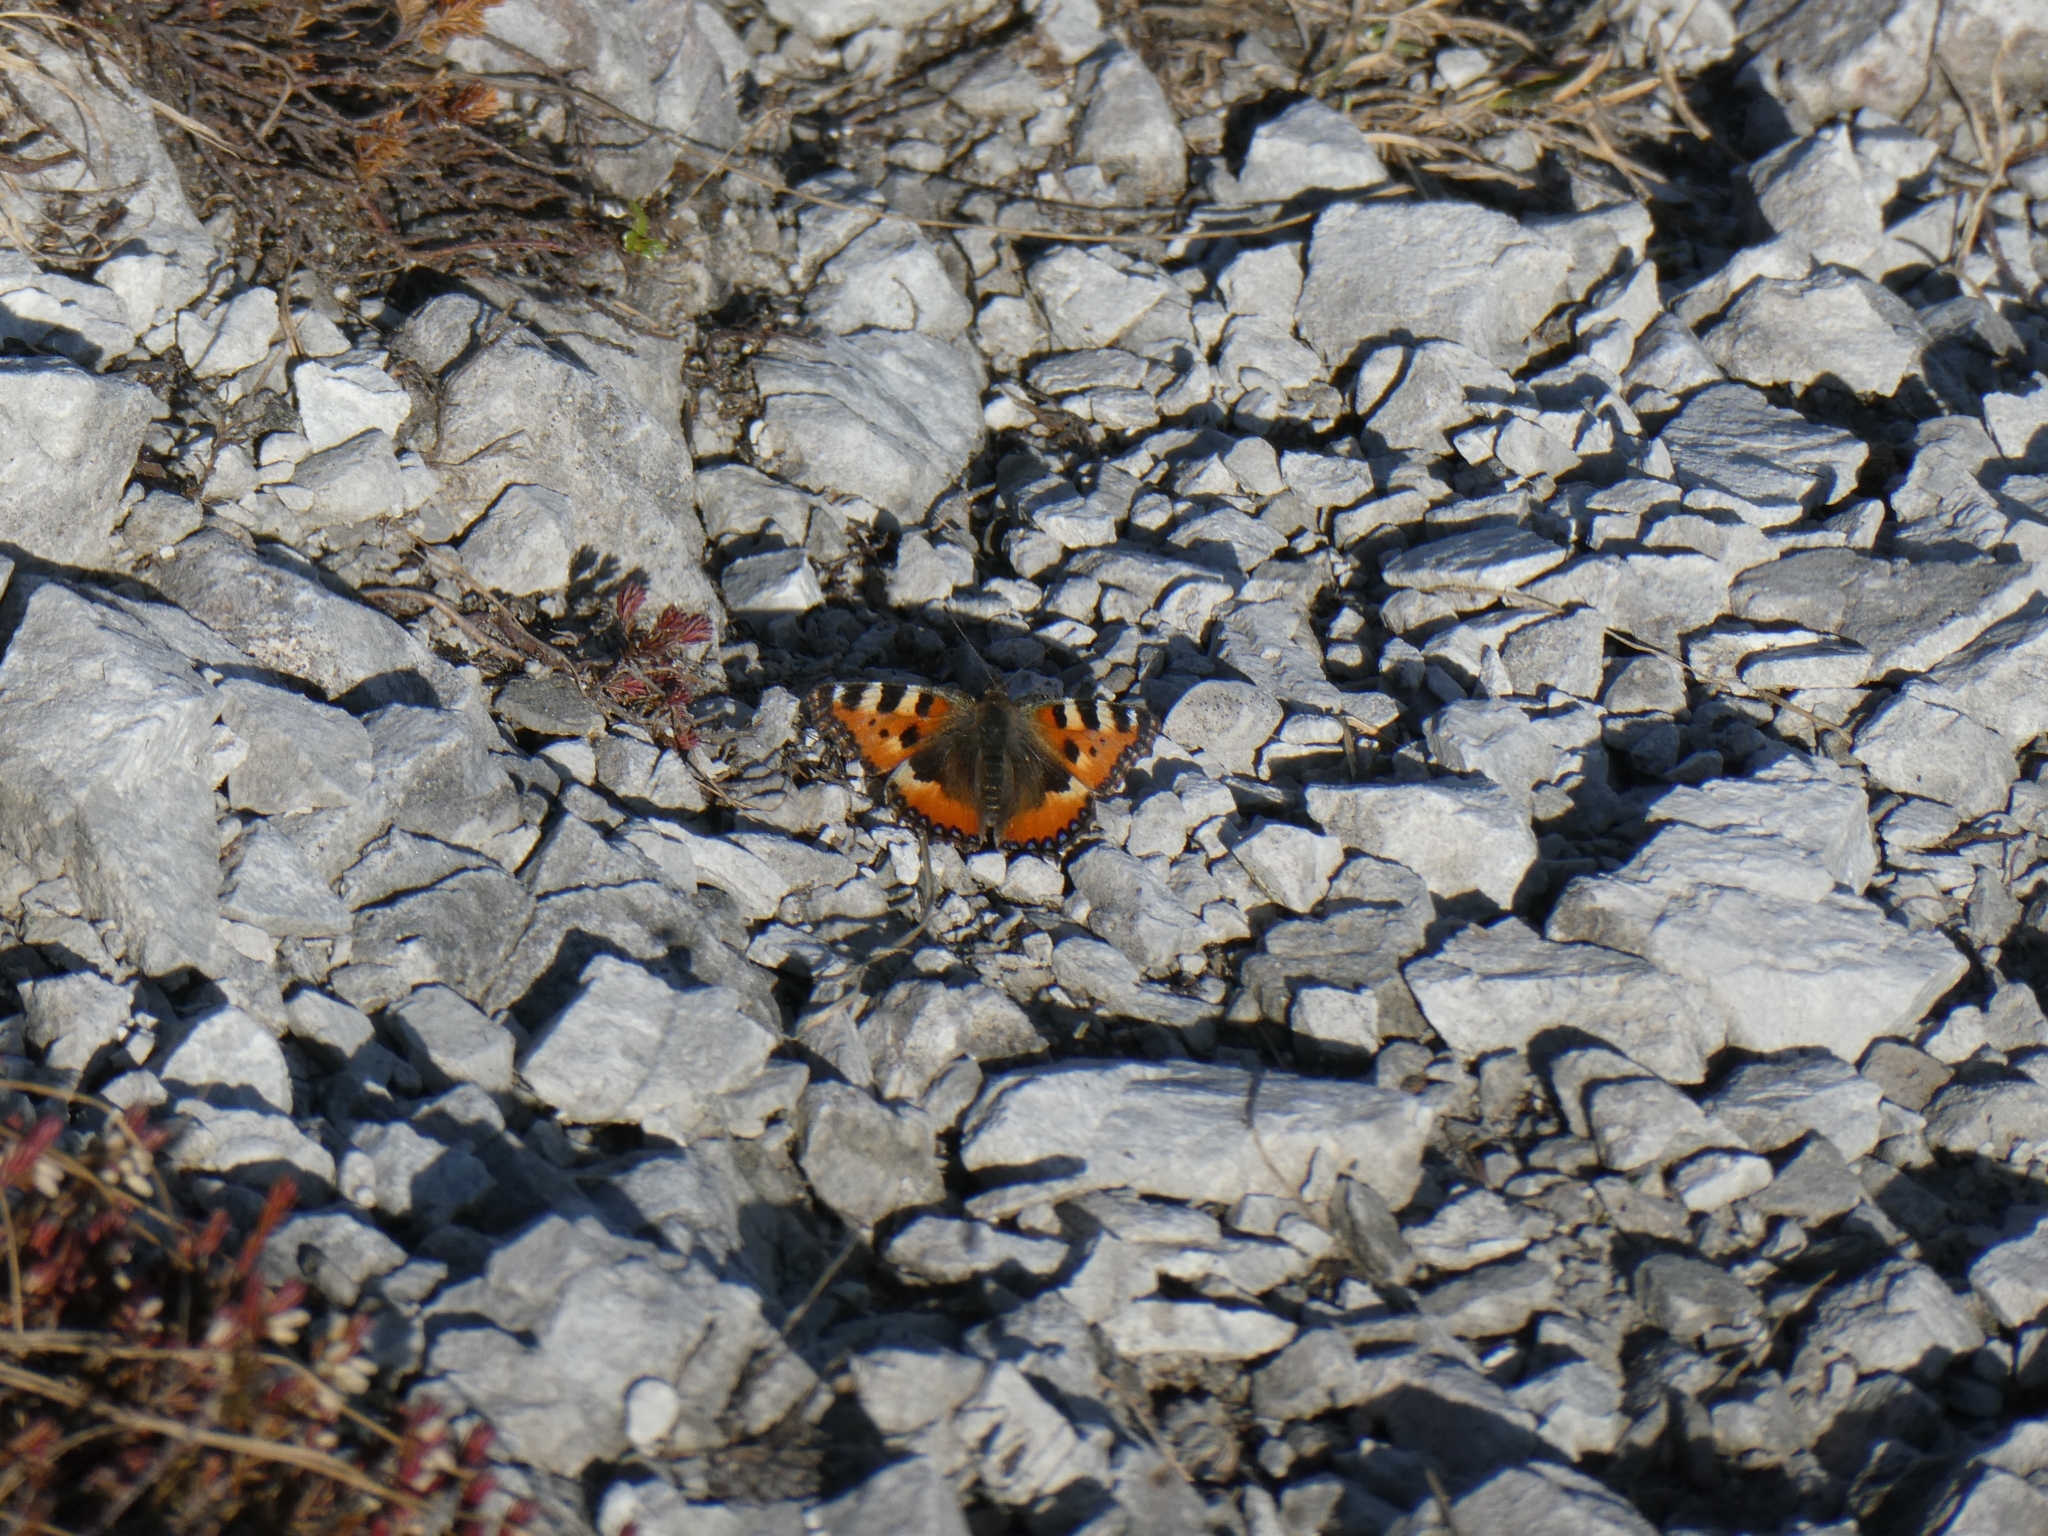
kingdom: Animalia
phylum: Arthropoda
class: Insecta
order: Lepidoptera
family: Nymphalidae
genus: Aglais
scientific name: Aglais urticae
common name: Small tortoiseshell
